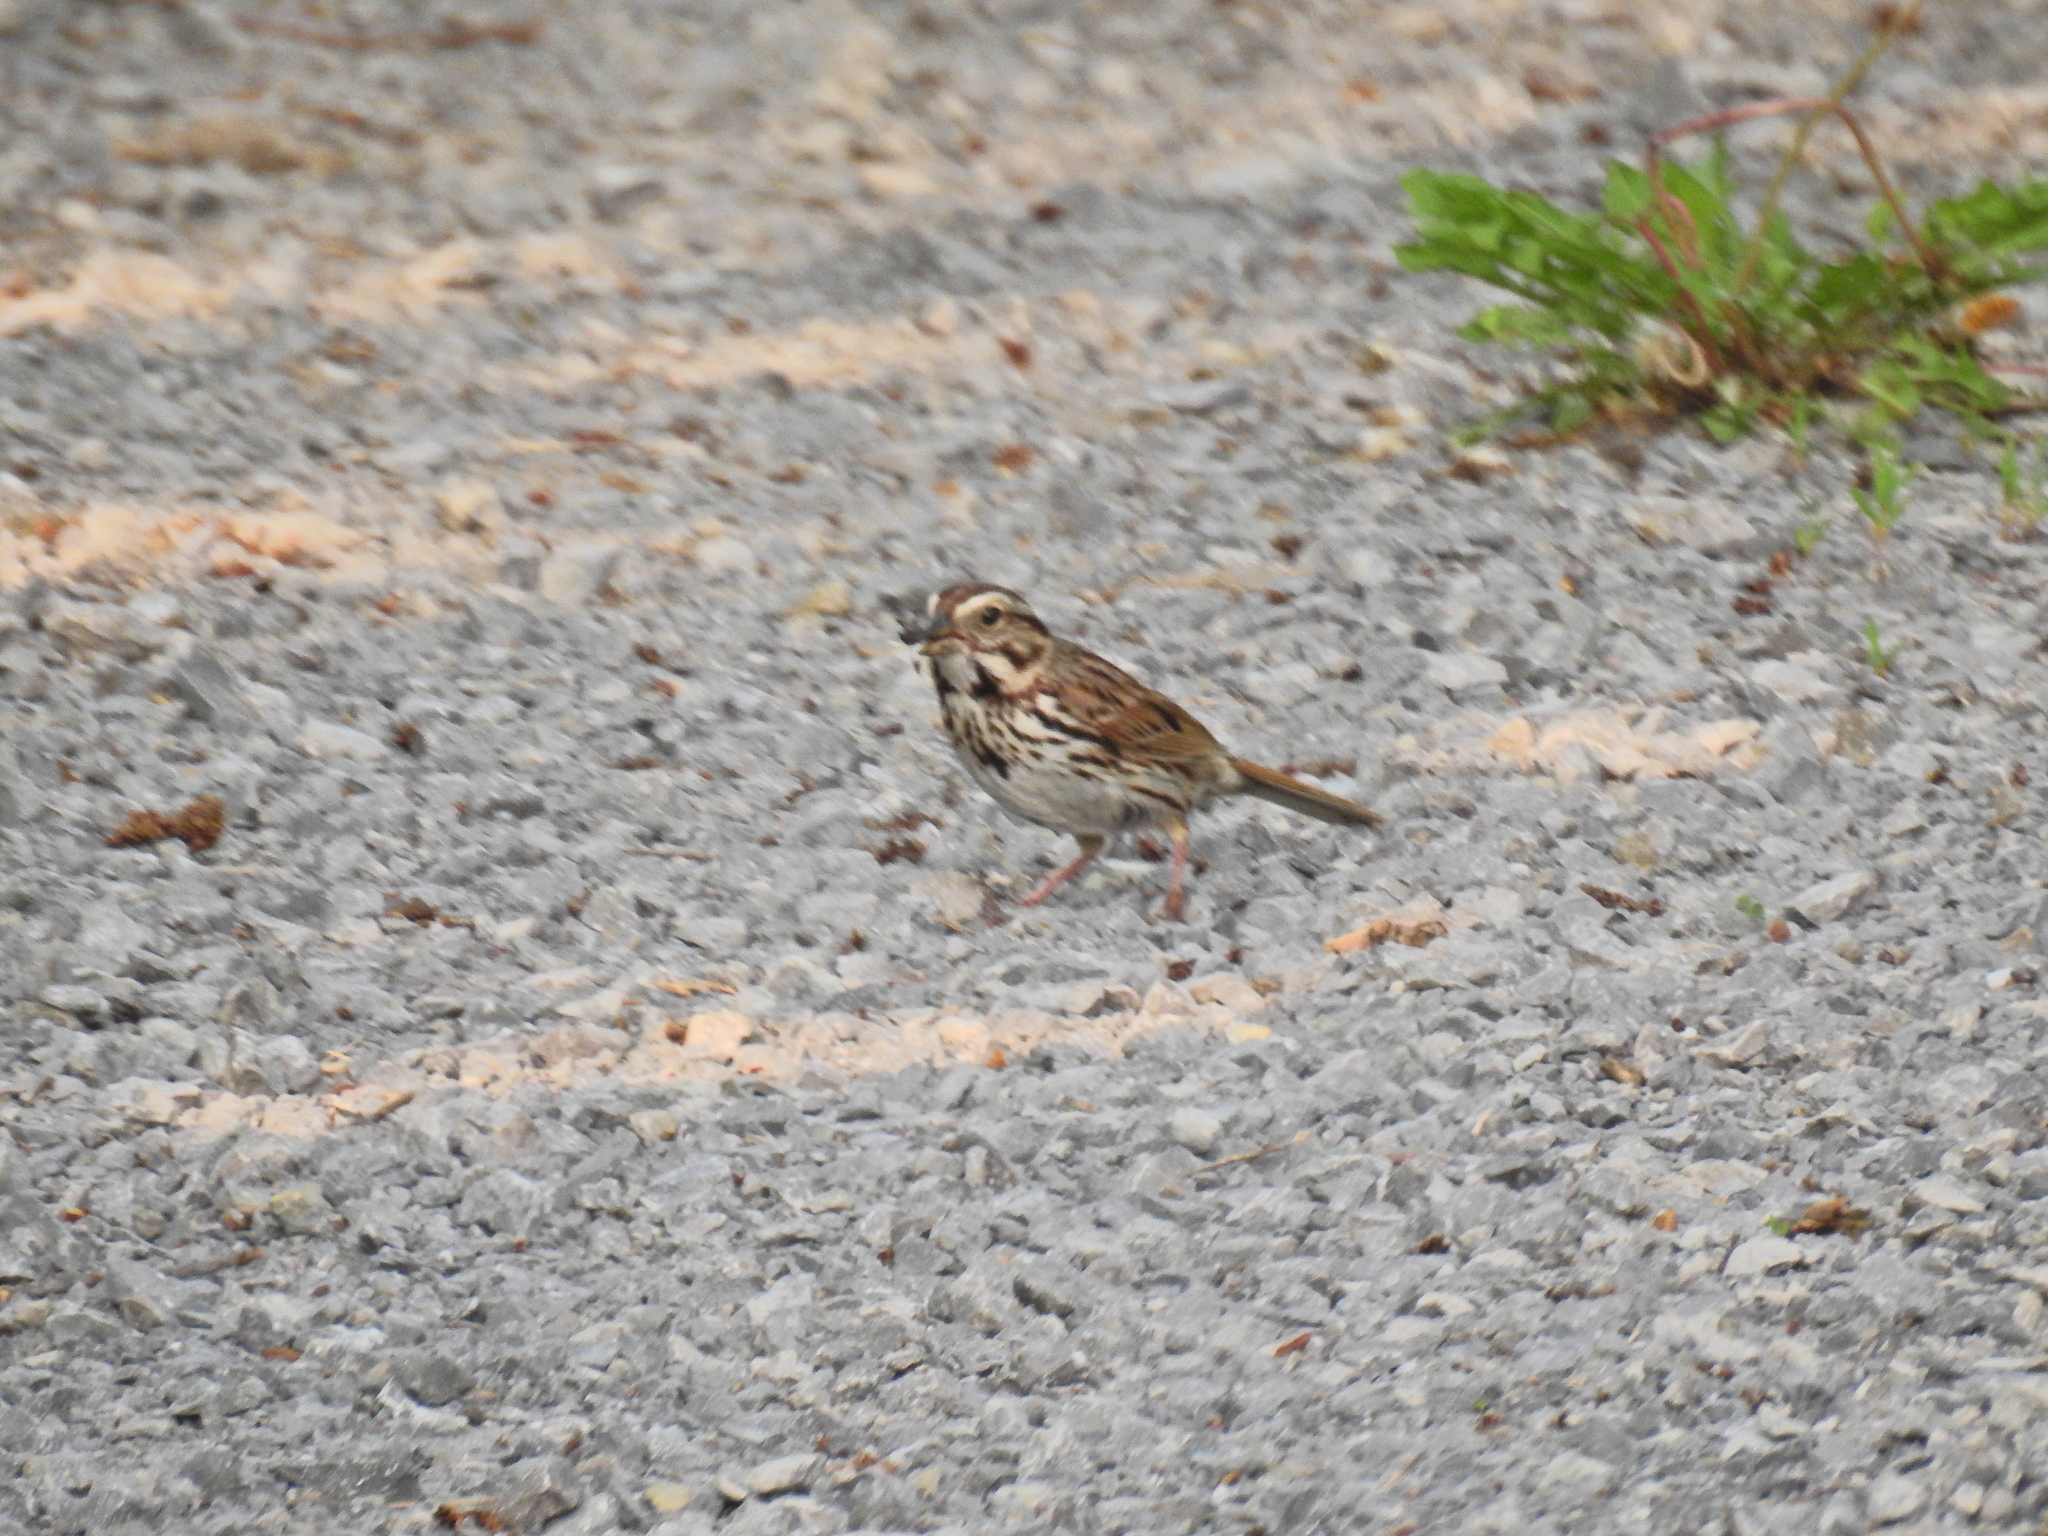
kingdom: Animalia
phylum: Chordata
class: Aves
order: Passeriformes
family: Passerellidae
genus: Melospiza
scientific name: Melospiza melodia
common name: Song sparrow
